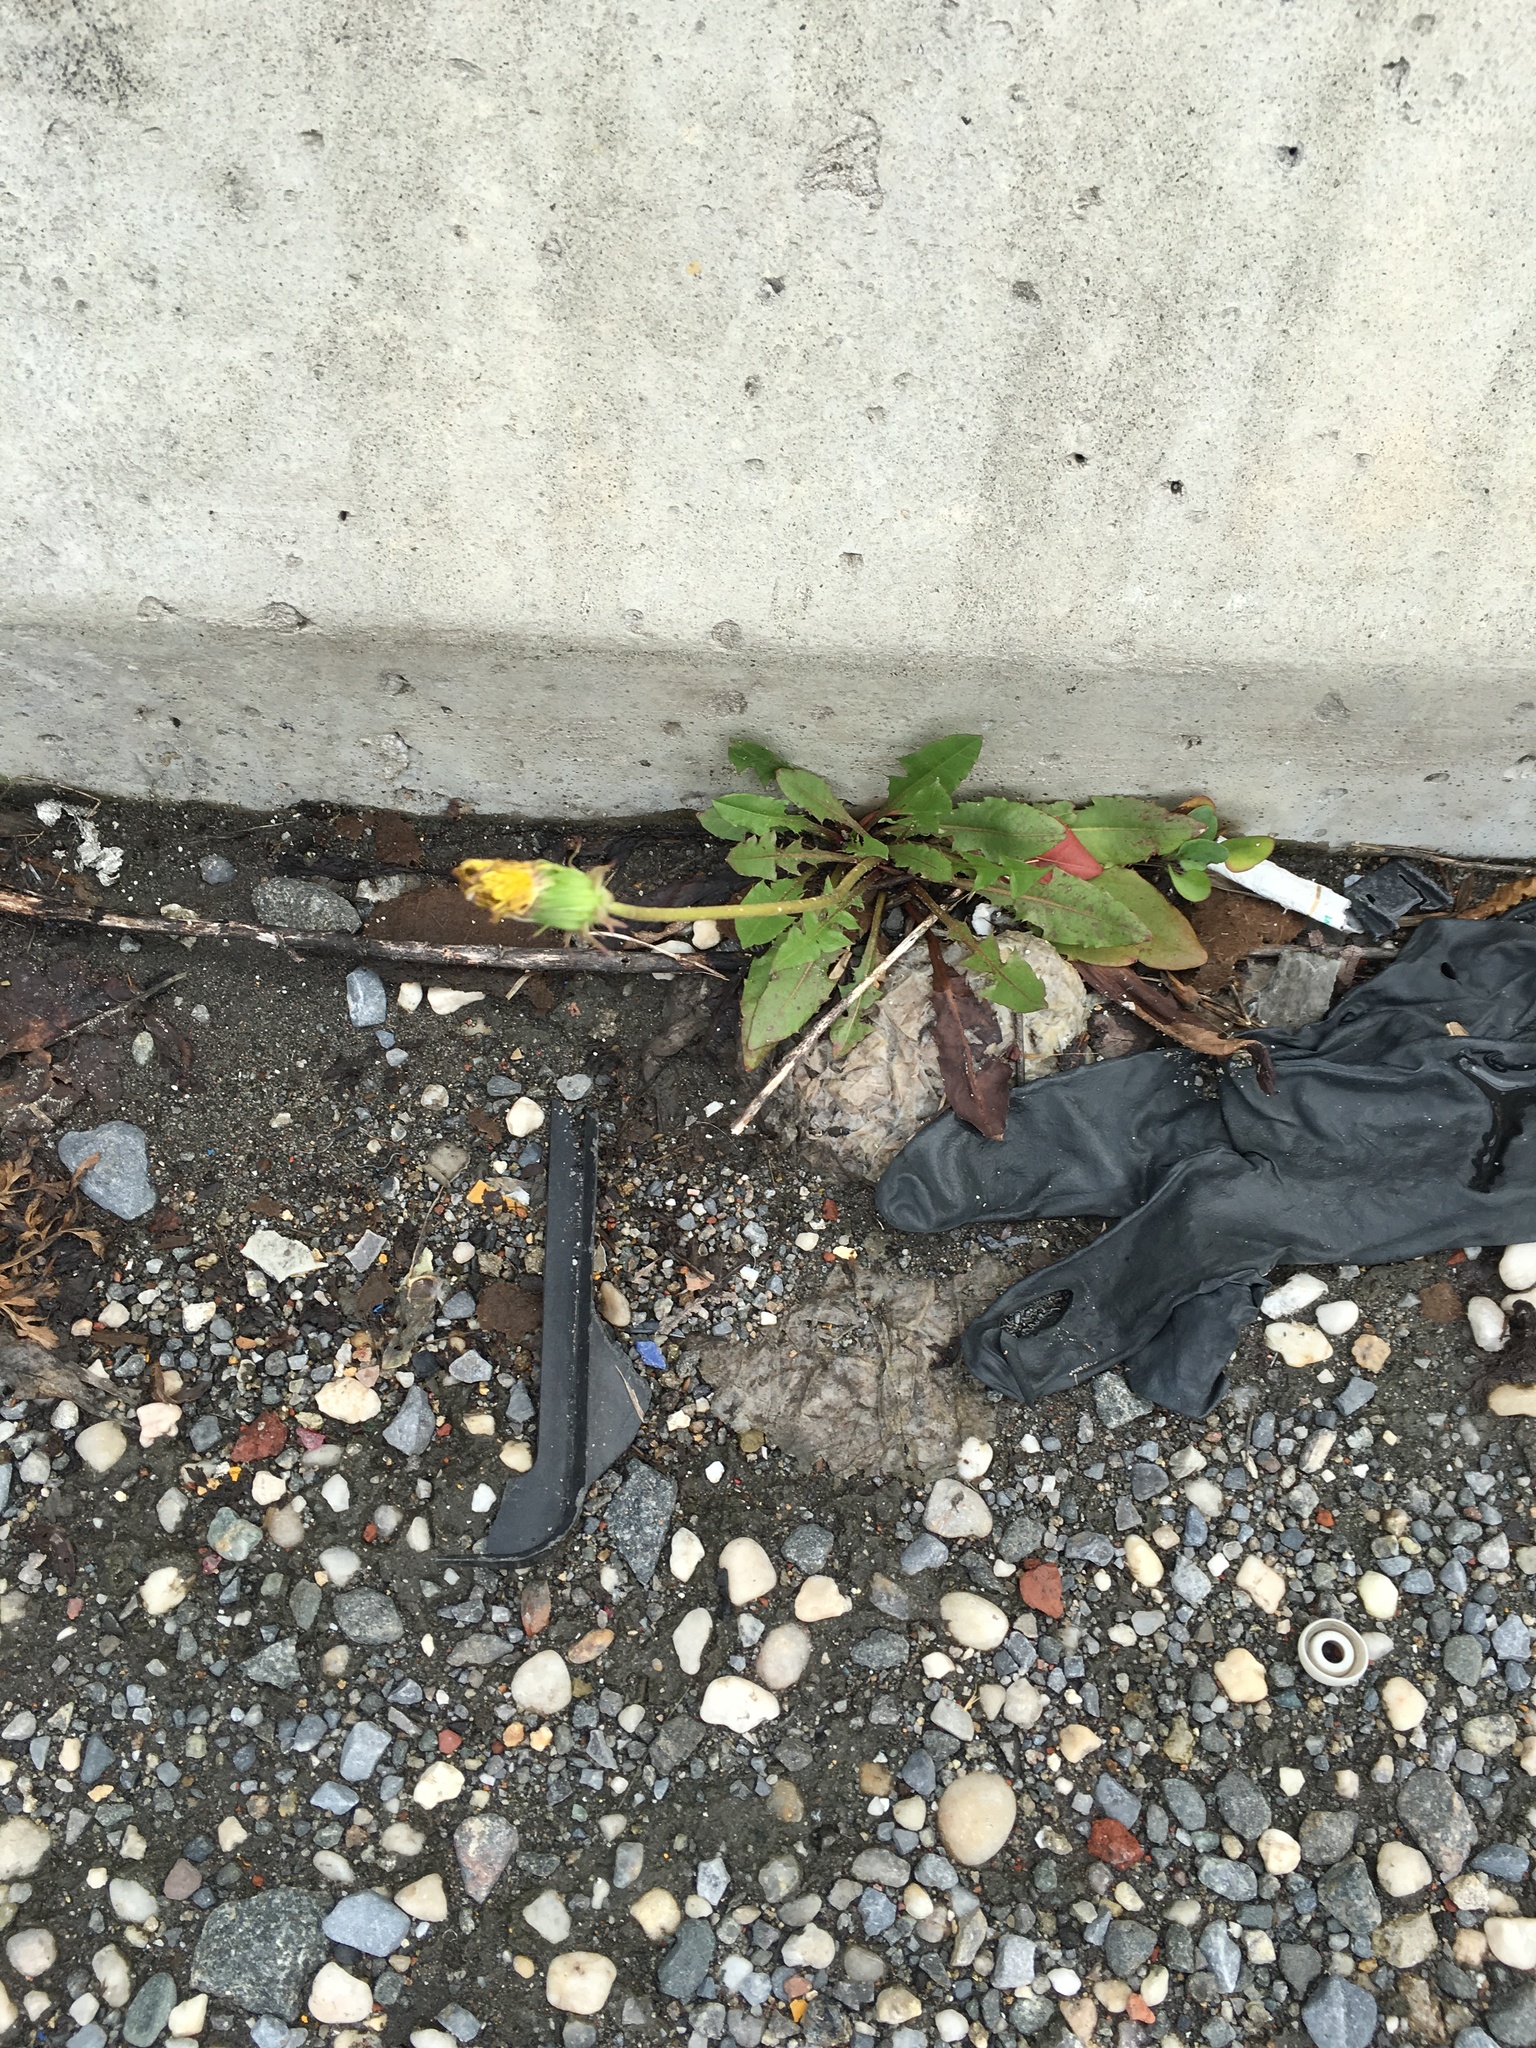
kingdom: Plantae
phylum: Tracheophyta
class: Magnoliopsida
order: Asterales
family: Asteraceae
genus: Taraxacum
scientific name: Taraxacum officinale
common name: Common dandelion
